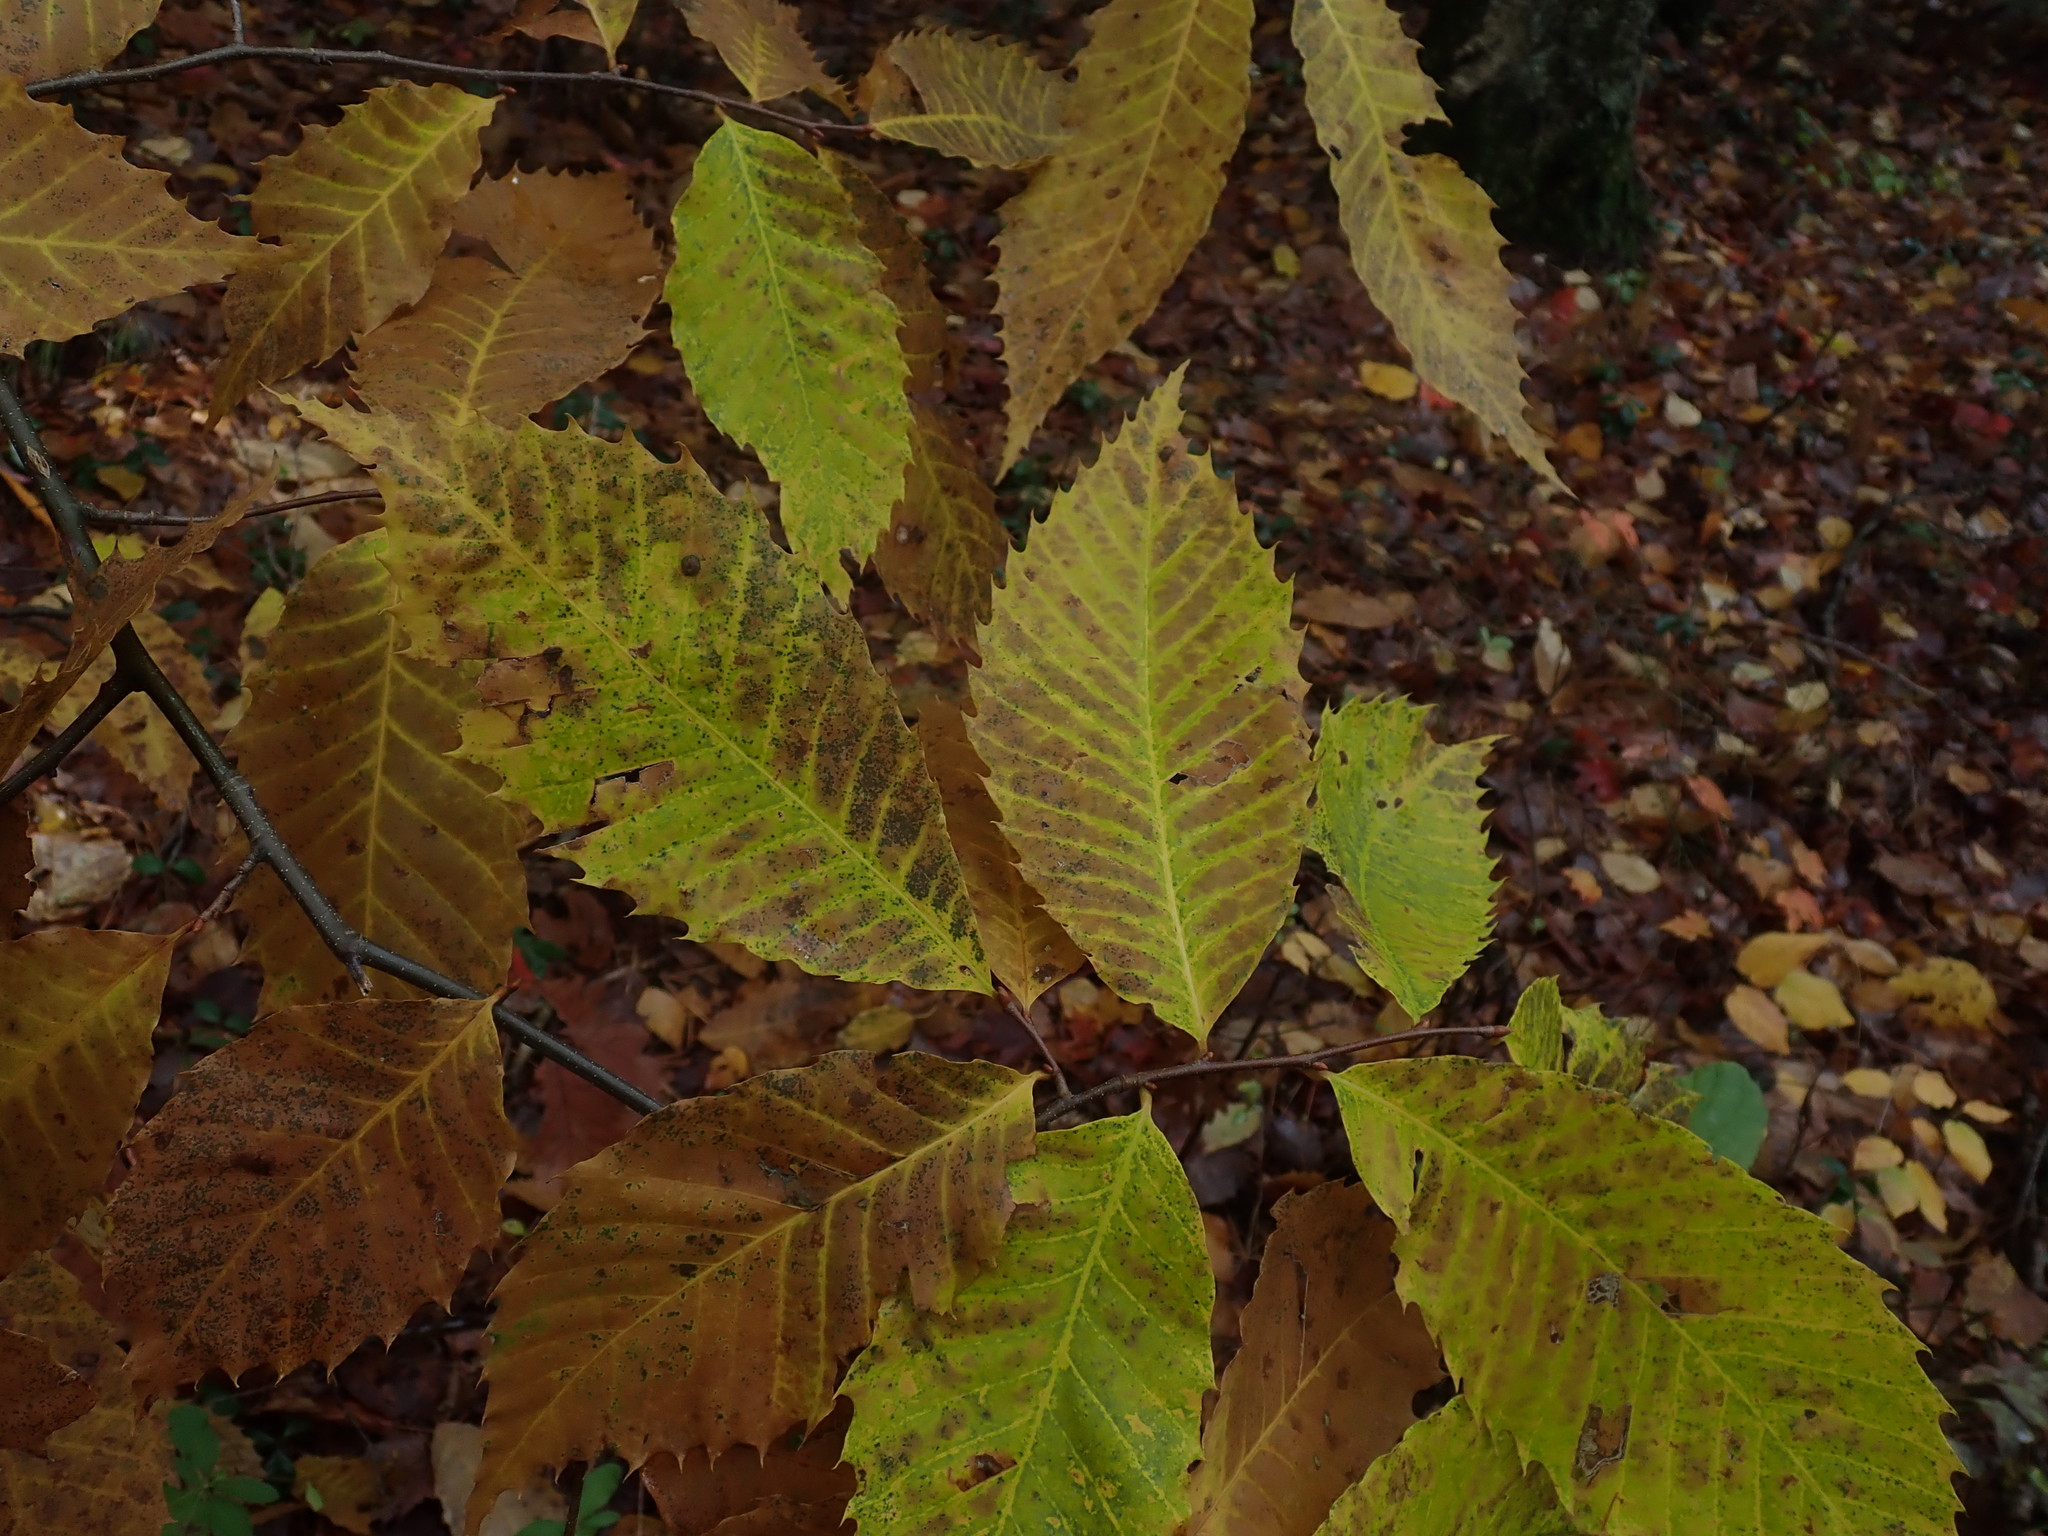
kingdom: Plantae
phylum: Tracheophyta
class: Magnoliopsida
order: Fagales
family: Fagaceae
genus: Castanea
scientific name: Castanea dentata
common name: American chestnut
